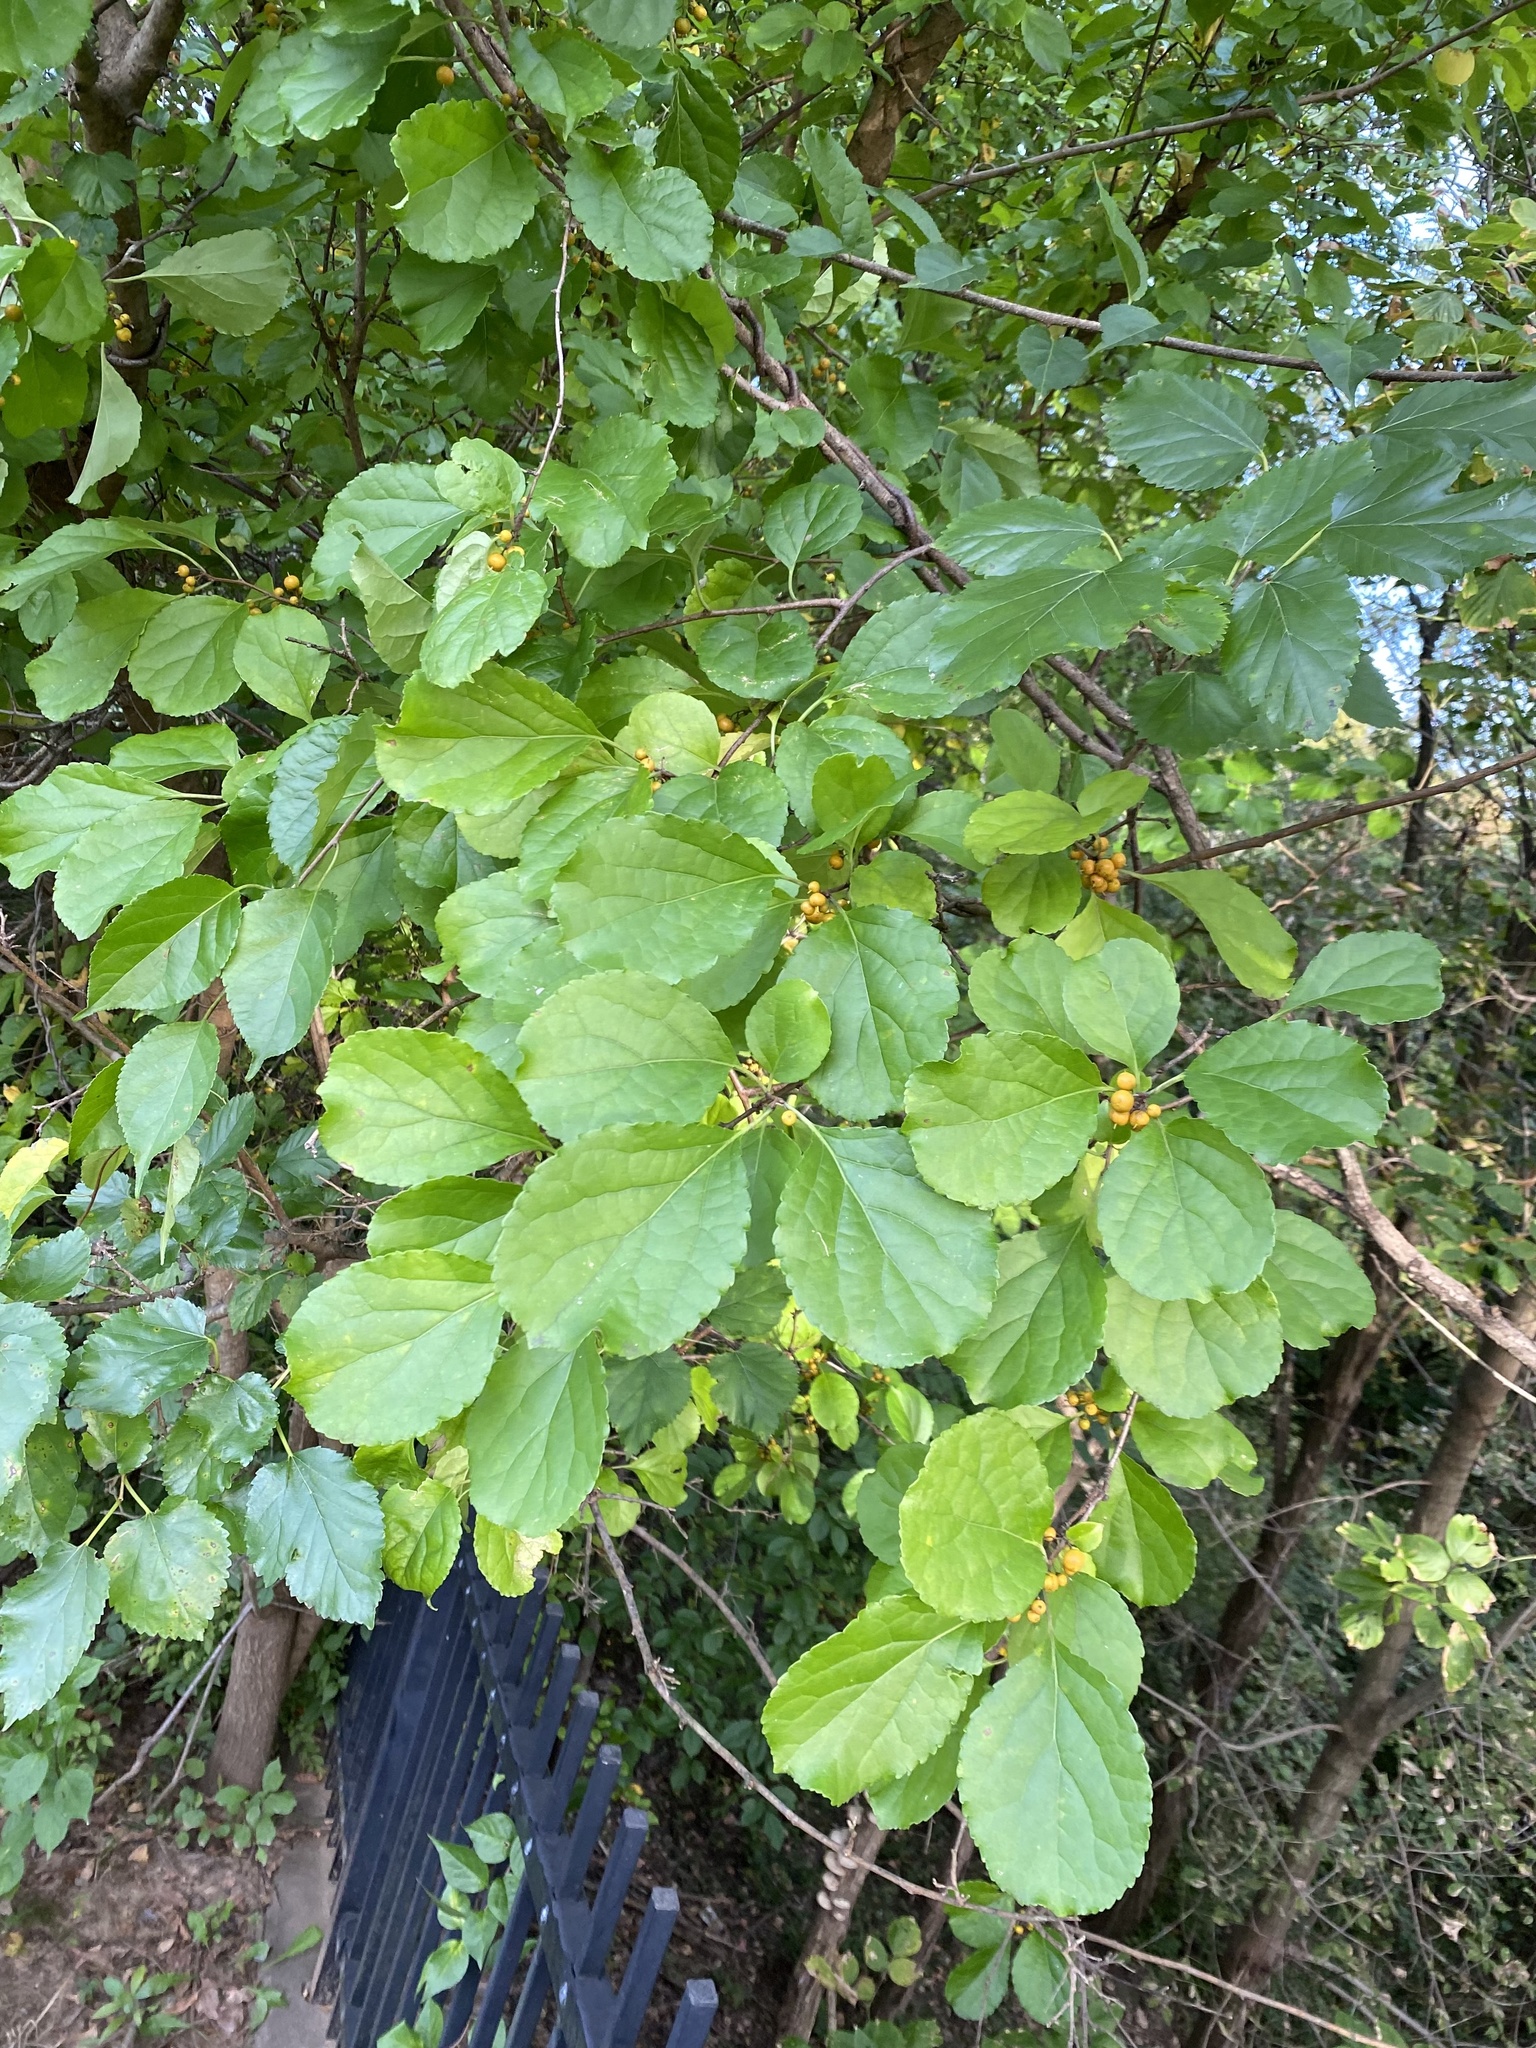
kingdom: Plantae
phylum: Tracheophyta
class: Magnoliopsida
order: Celastrales
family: Celastraceae
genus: Celastrus
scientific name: Celastrus orbiculatus
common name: Oriental bittersweet
